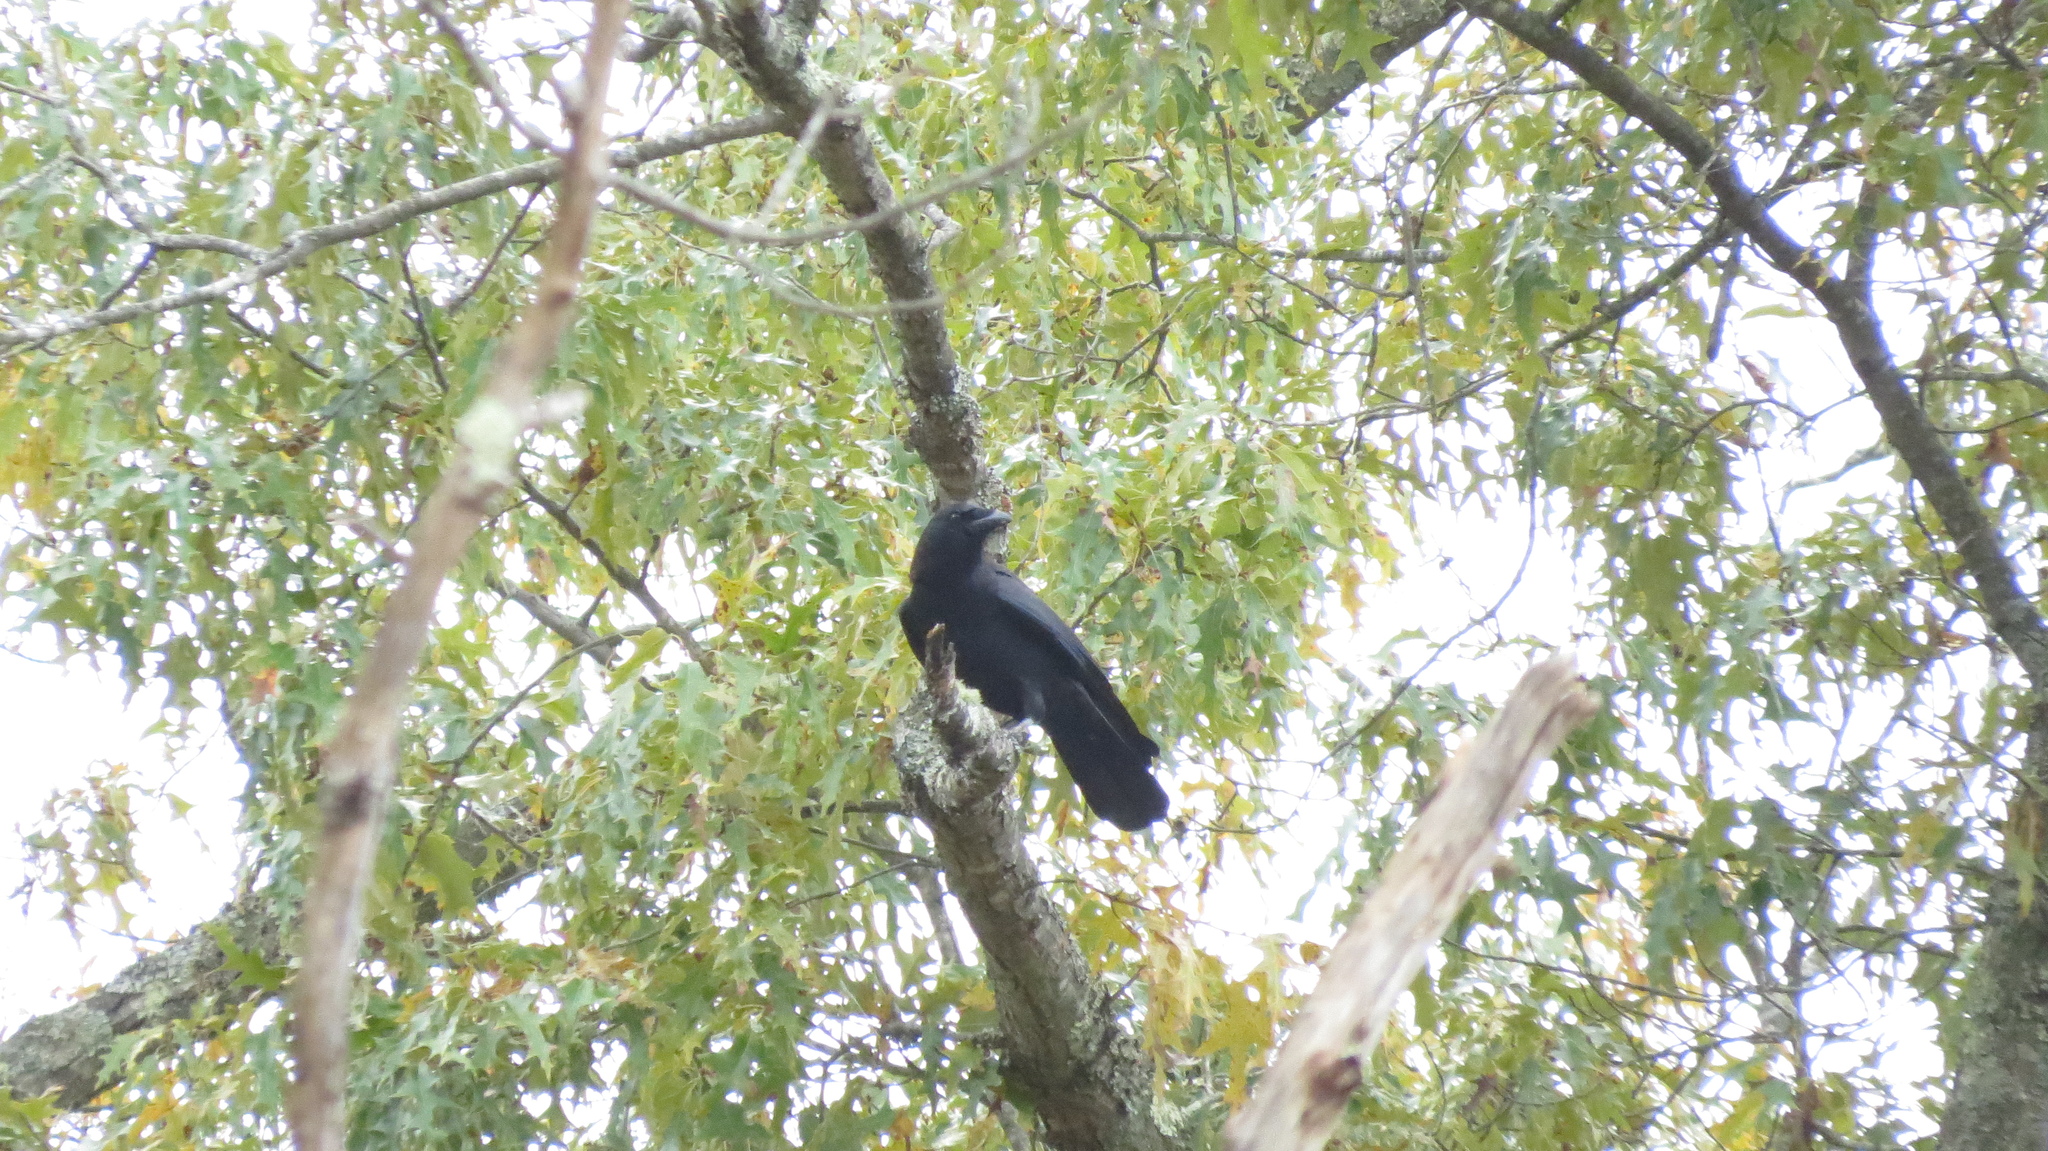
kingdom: Animalia
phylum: Chordata
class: Aves
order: Passeriformes
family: Corvidae
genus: Corvus
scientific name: Corvus brachyrhynchos
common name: American crow
